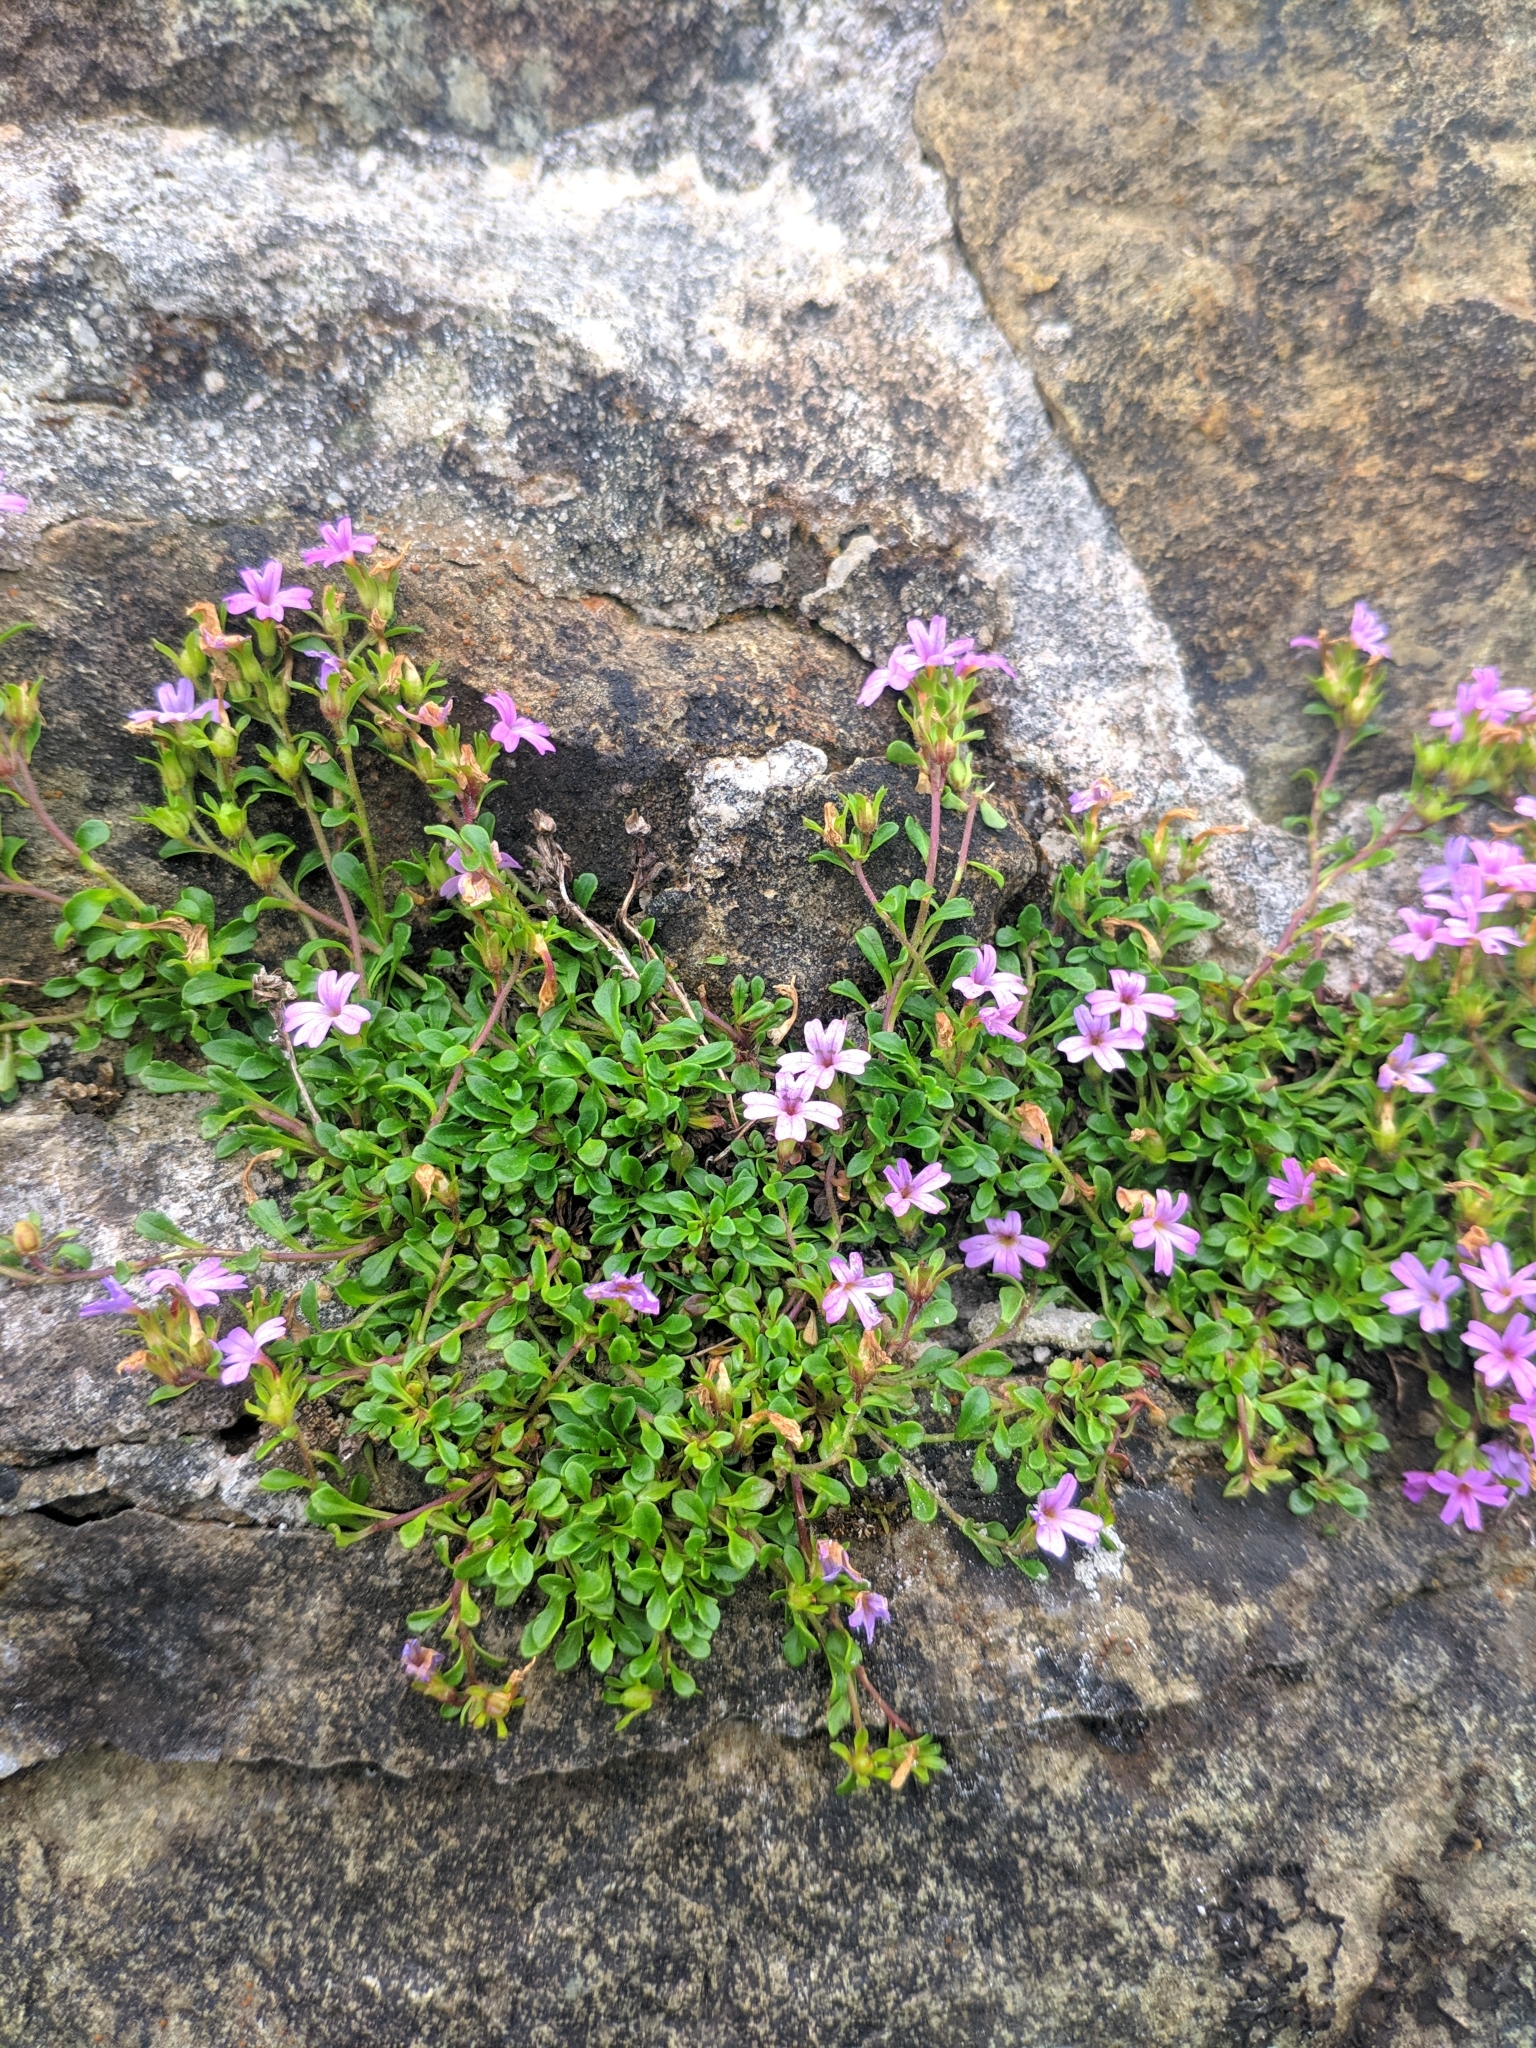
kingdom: Plantae
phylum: Tracheophyta
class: Magnoliopsida
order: Lamiales
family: Plantaginaceae
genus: Erinus
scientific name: Erinus alpinus
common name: Fairy foxglove
